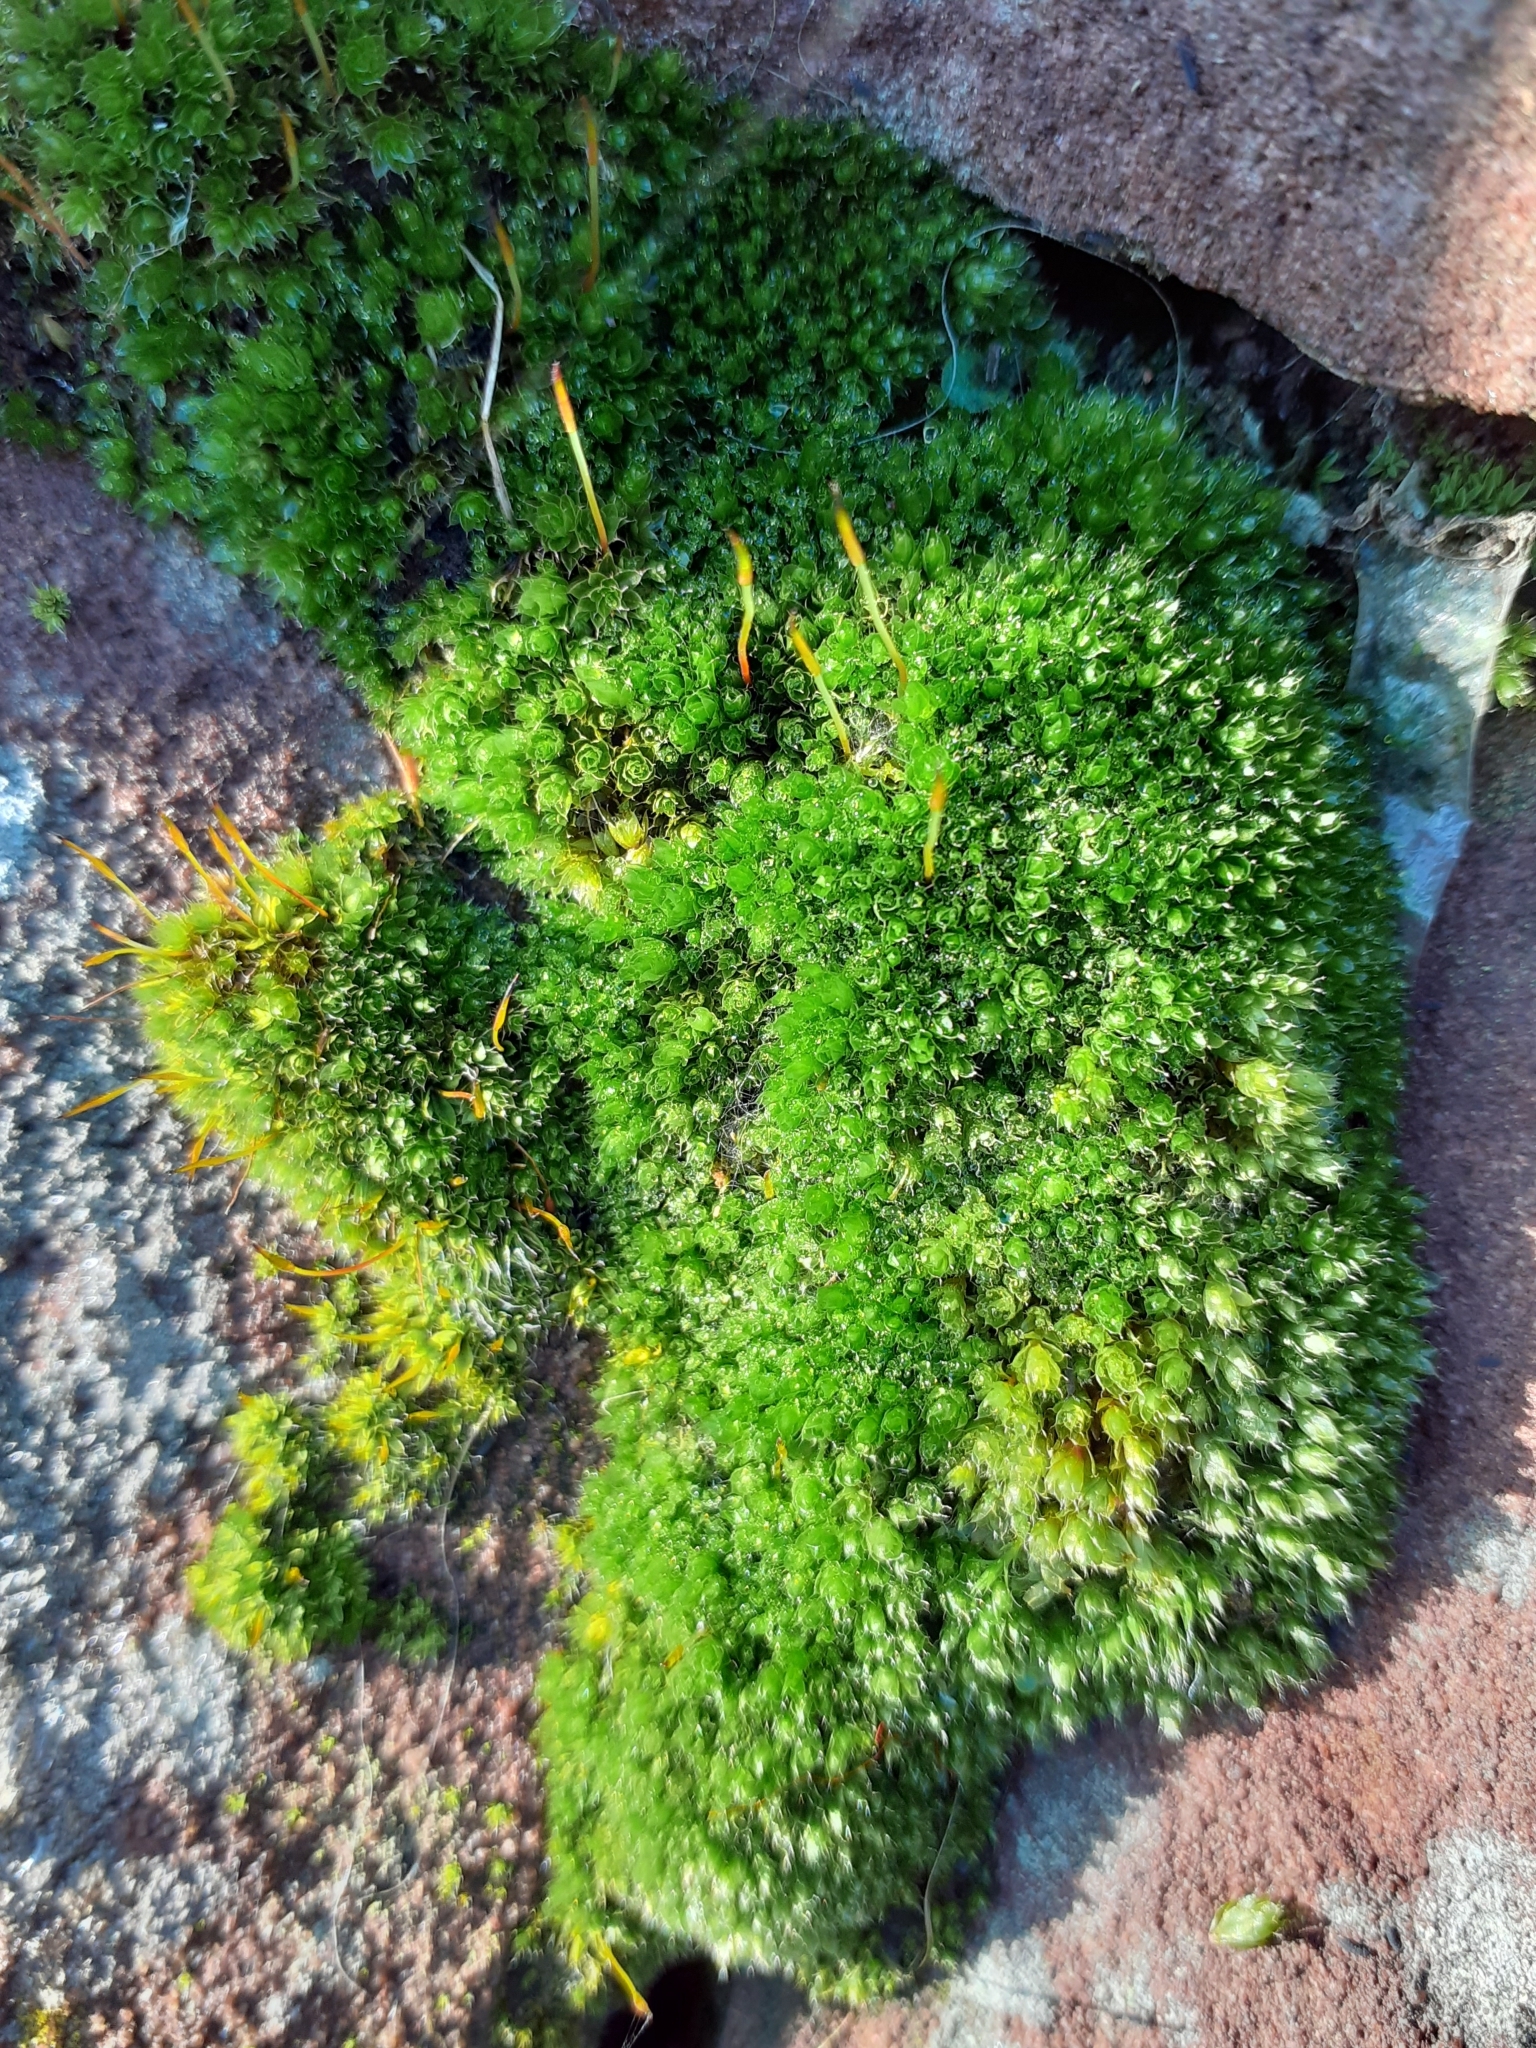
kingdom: Plantae
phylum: Bryophyta
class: Bryopsida
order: Pottiales
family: Pottiaceae
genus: Tortula
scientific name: Tortula muralis
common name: Wall screw-moss
